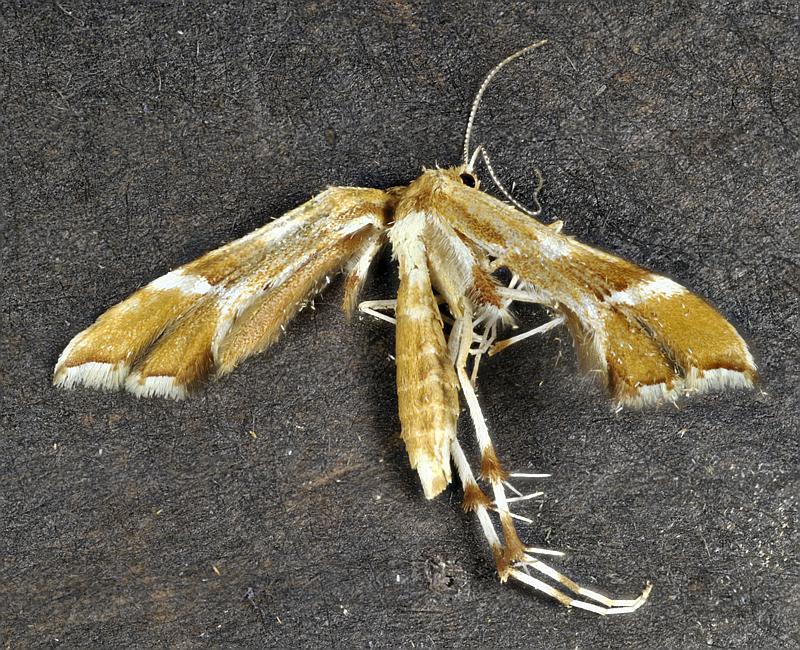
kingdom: Animalia
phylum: Arthropoda
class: Insecta
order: Lepidoptera
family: Pterophoridae
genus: Cnaemidophorus
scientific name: Cnaemidophorus rhododactyla
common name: Rose plume
